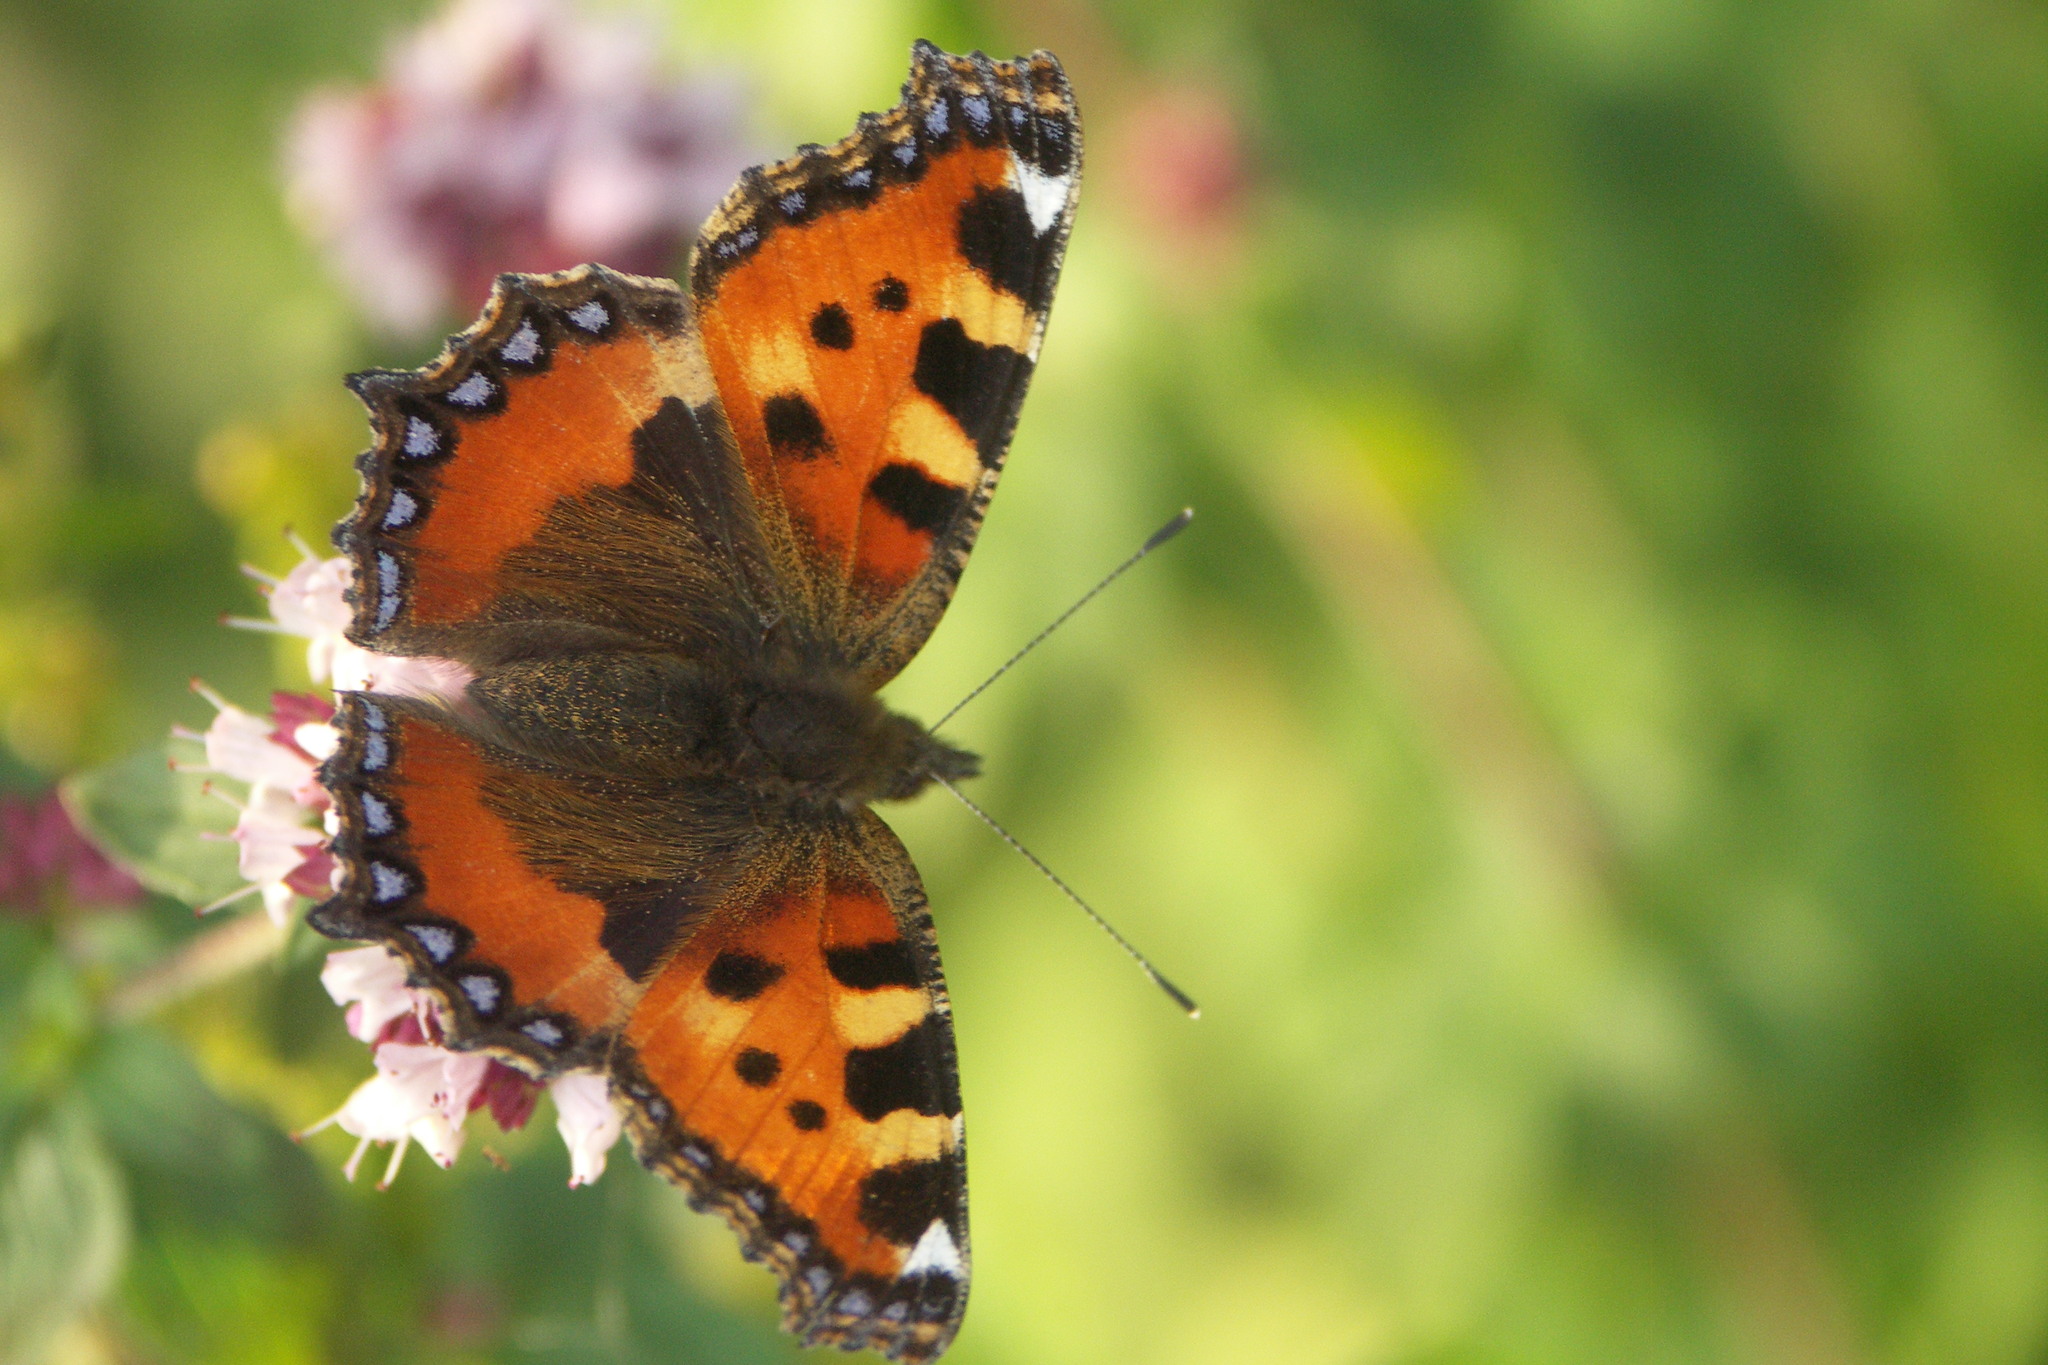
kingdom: Animalia
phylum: Arthropoda
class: Insecta
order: Lepidoptera
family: Nymphalidae
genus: Aglais
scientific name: Aglais urticae
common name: Small tortoiseshell
